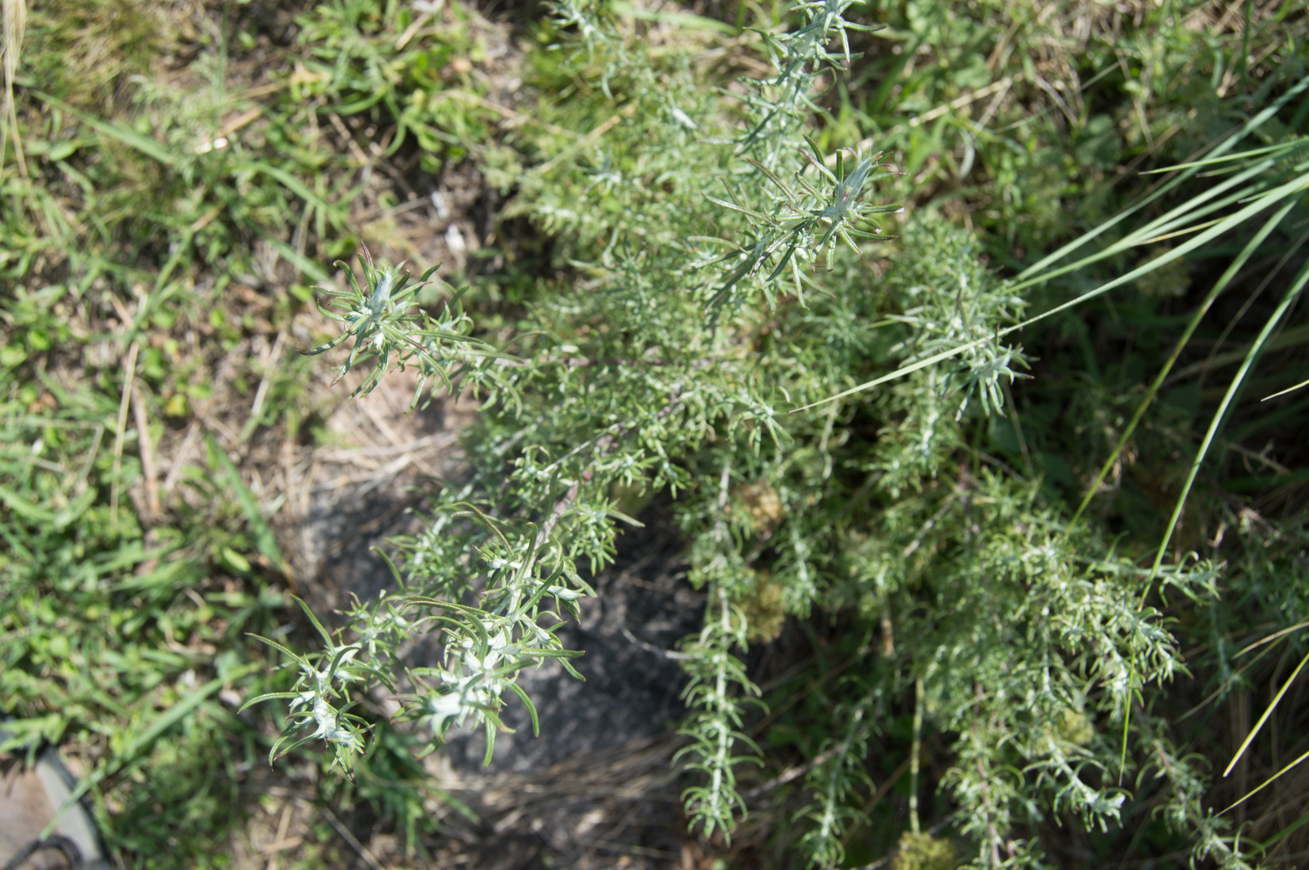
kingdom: Plantae
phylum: Tracheophyta
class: Magnoliopsida
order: Asterales
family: Asteraceae
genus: Baccharis
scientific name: Baccharis artemisioides
